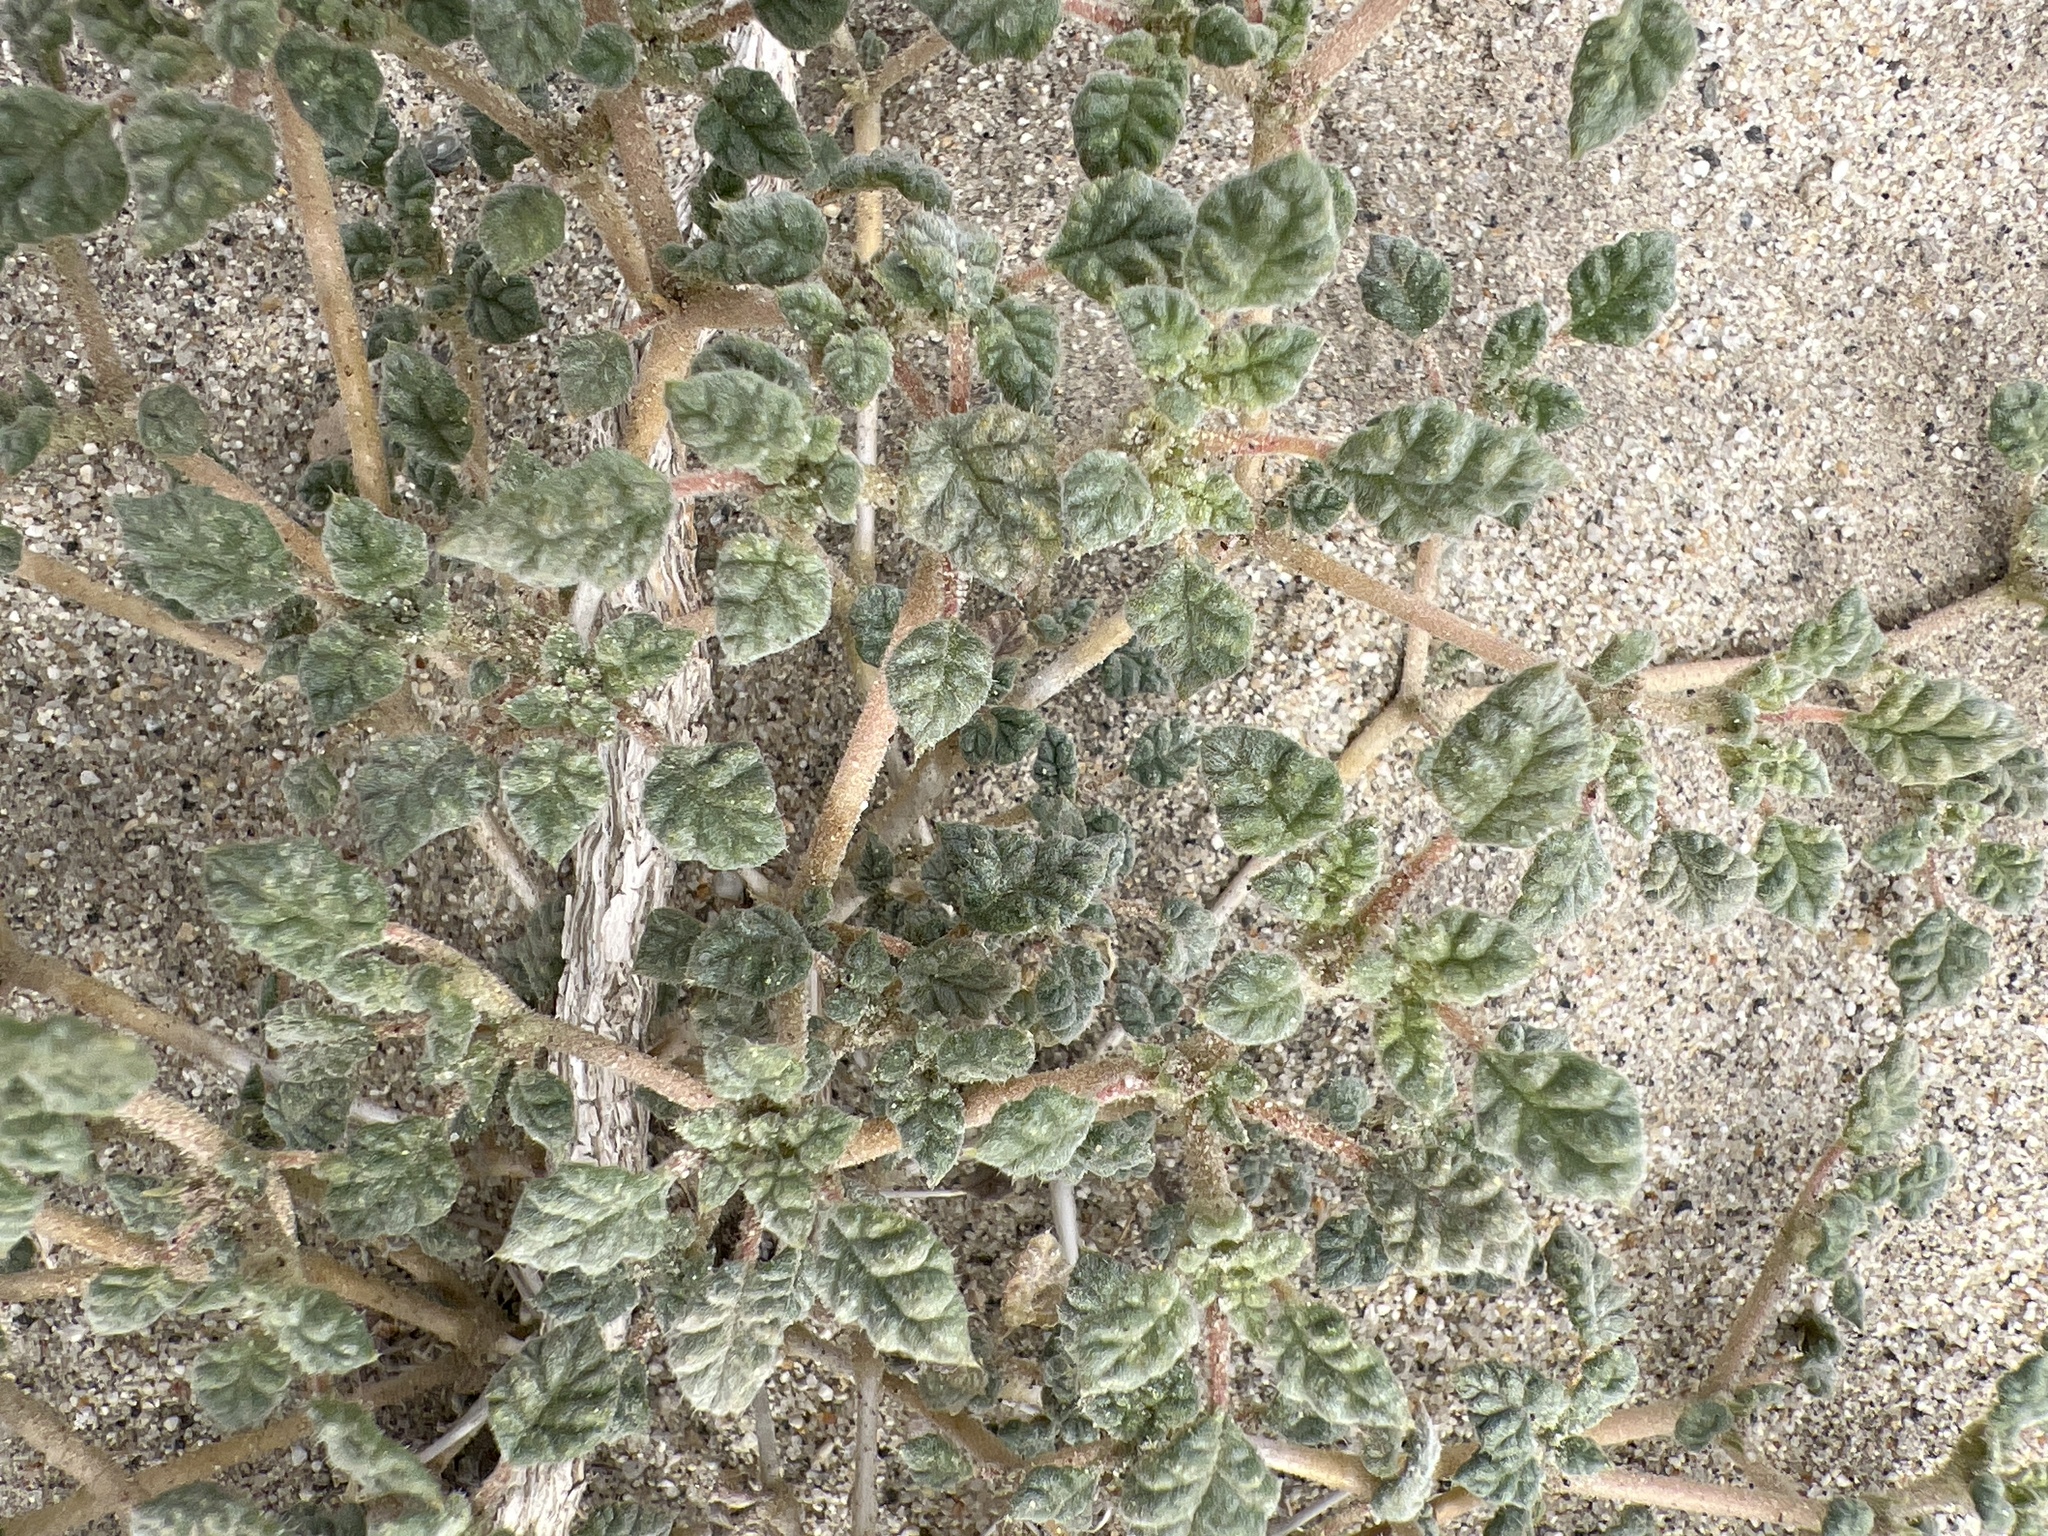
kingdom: Plantae
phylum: Tracheophyta
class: Magnoliopsida
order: Boraginales
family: Ehretiaceae
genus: Tiquilia
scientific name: Tiquilia palmeri
